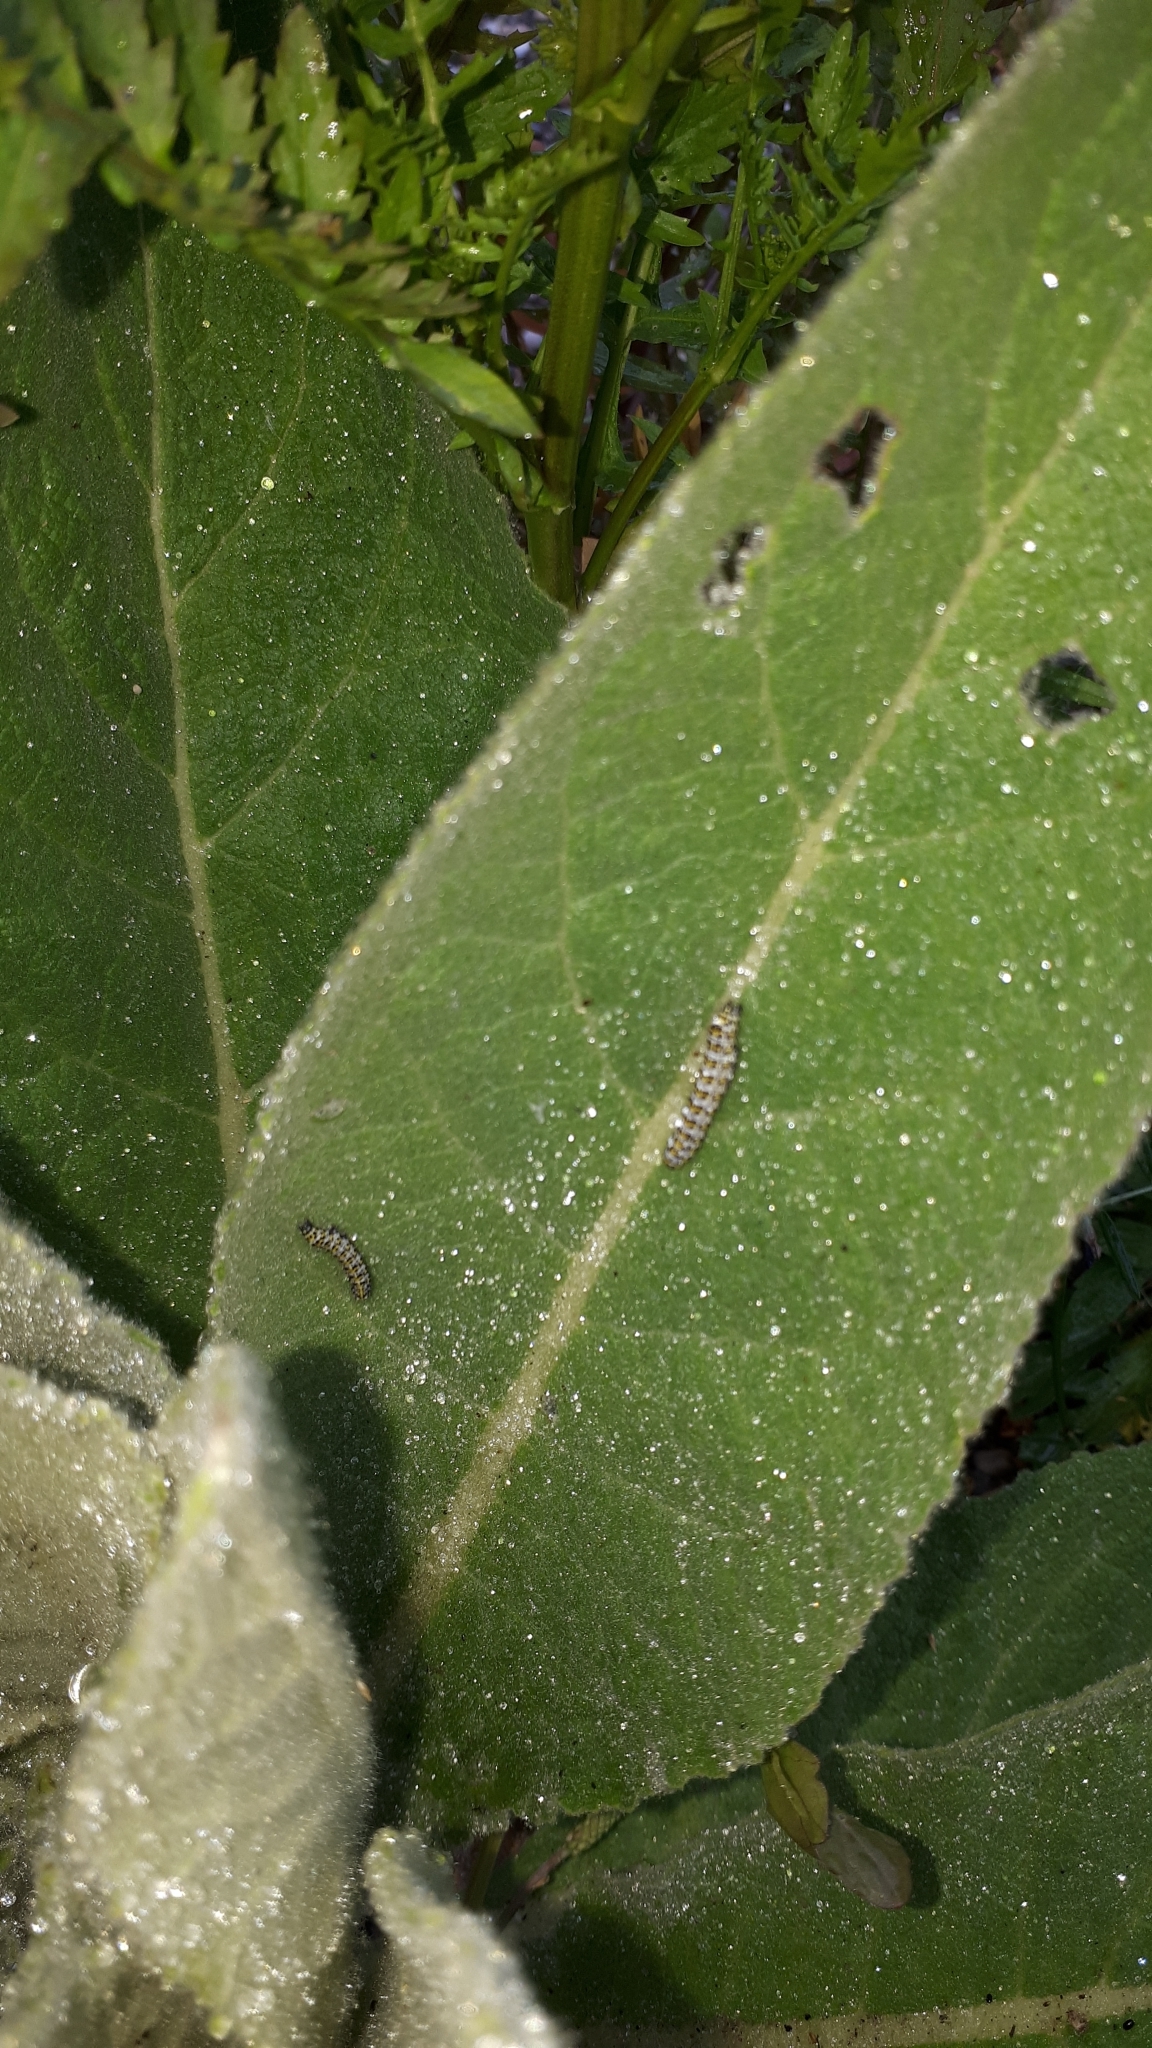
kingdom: Animalia
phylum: Arthropoda
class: Insecta
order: Lepidoptera
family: Noctuidae
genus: Cucullia
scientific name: Cucullia verbasci
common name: Mullein
